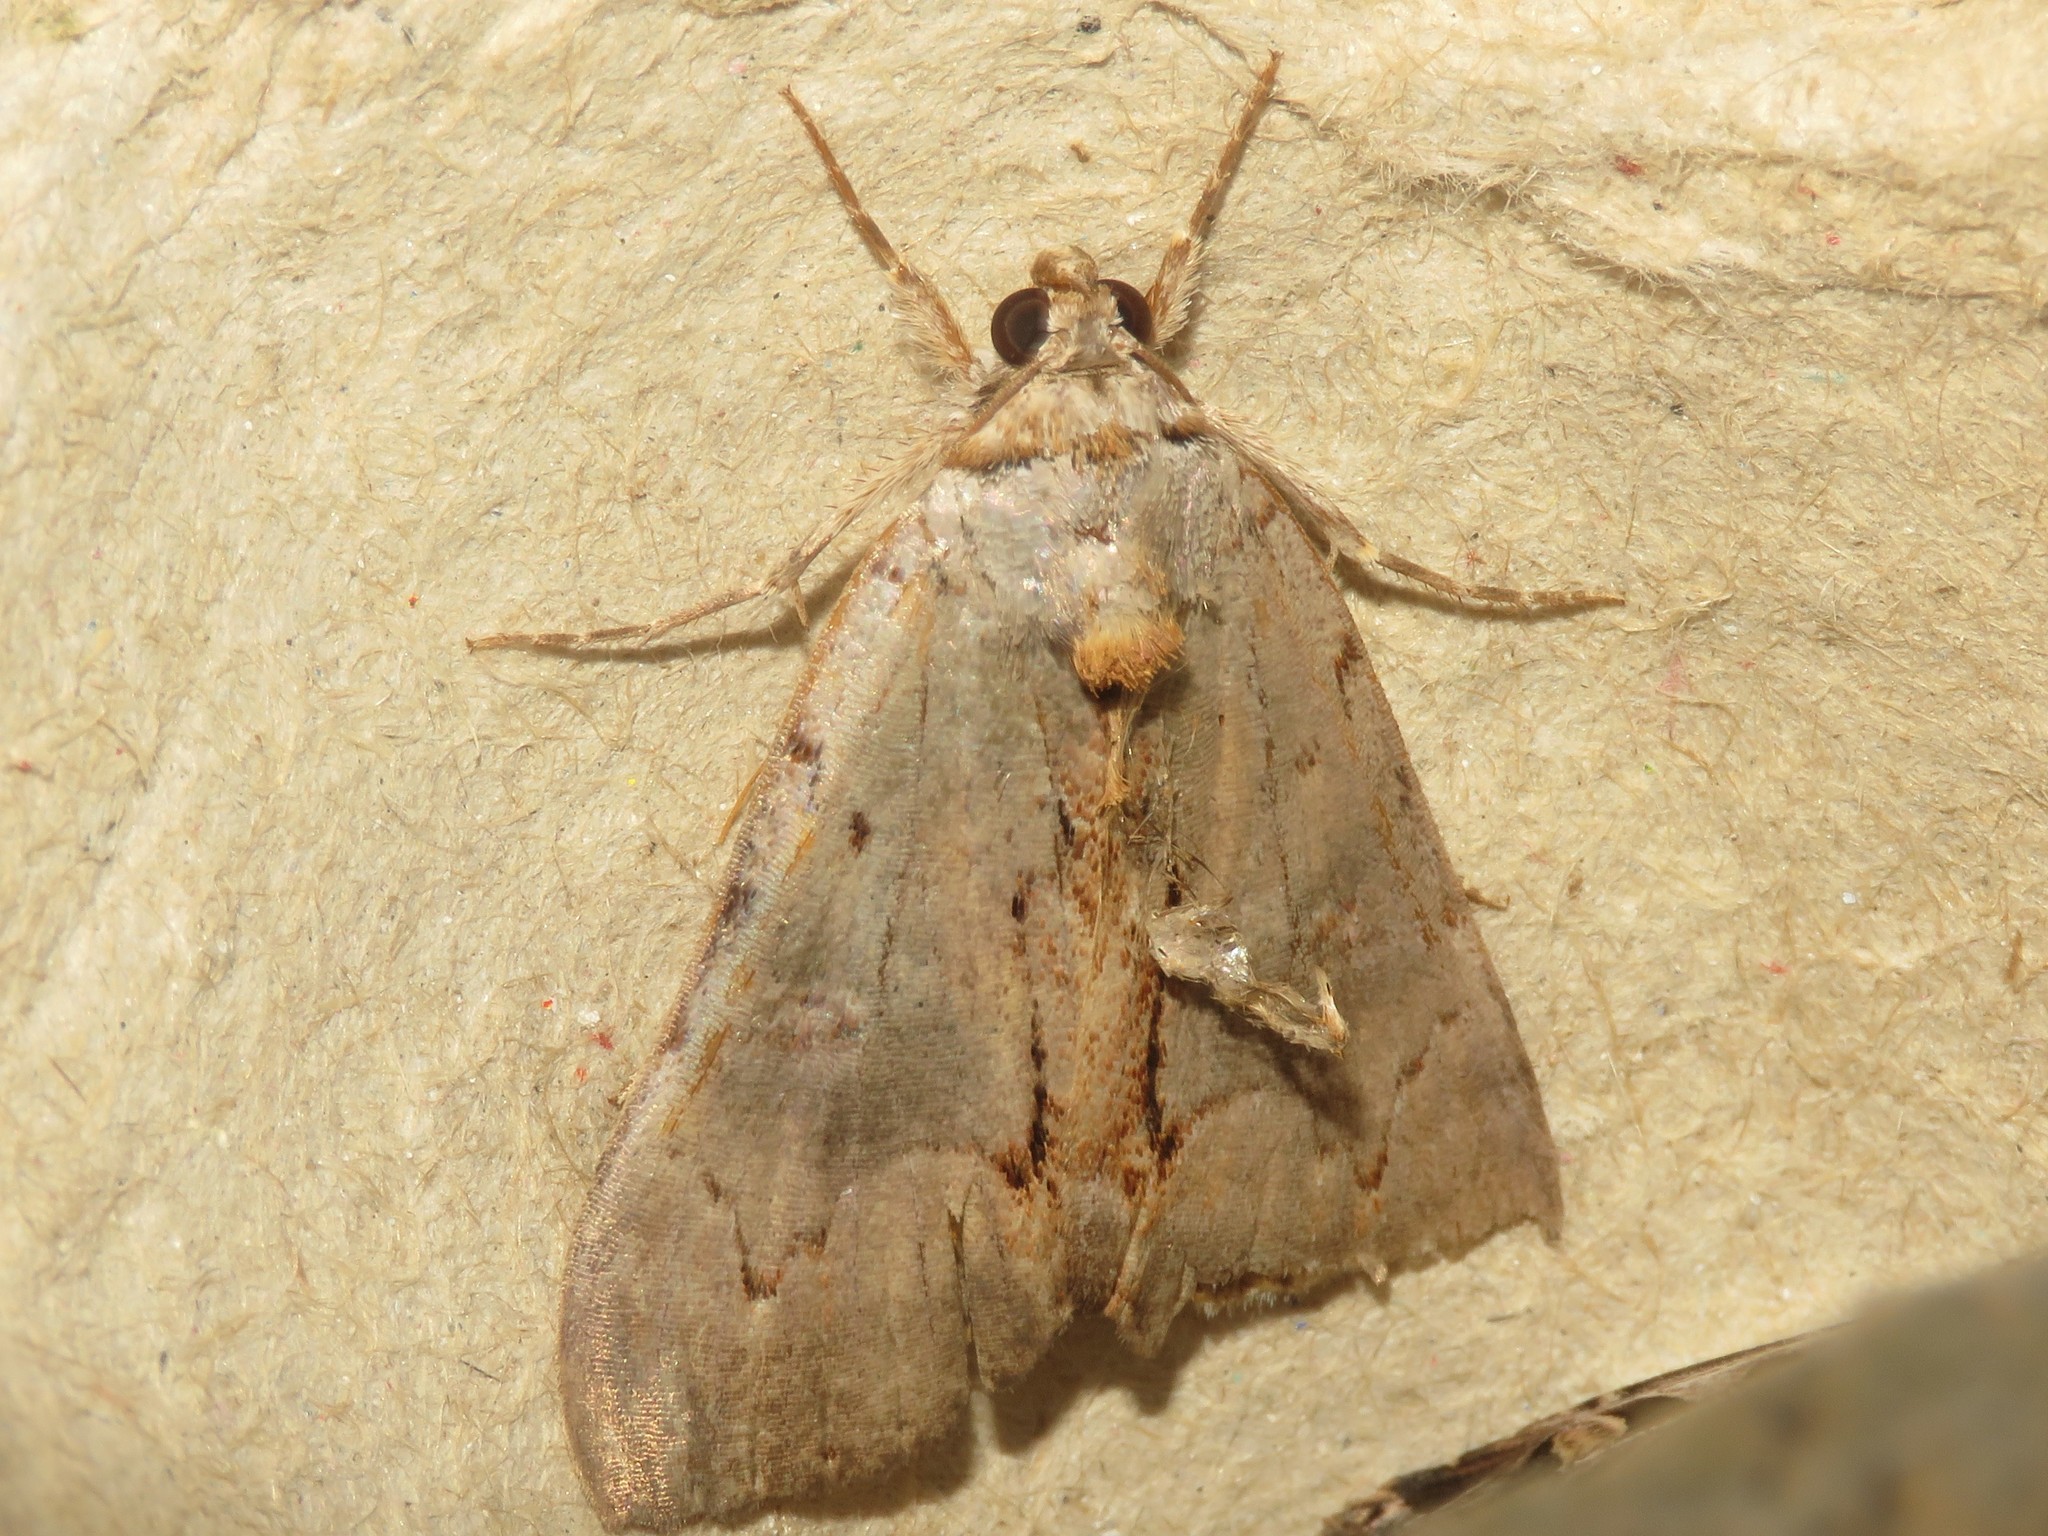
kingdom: Animalia
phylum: Arthropoda
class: Insecta
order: Lepidoptera
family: Erebidae
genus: Catocala
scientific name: Catocala grynea
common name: Woody underwing
